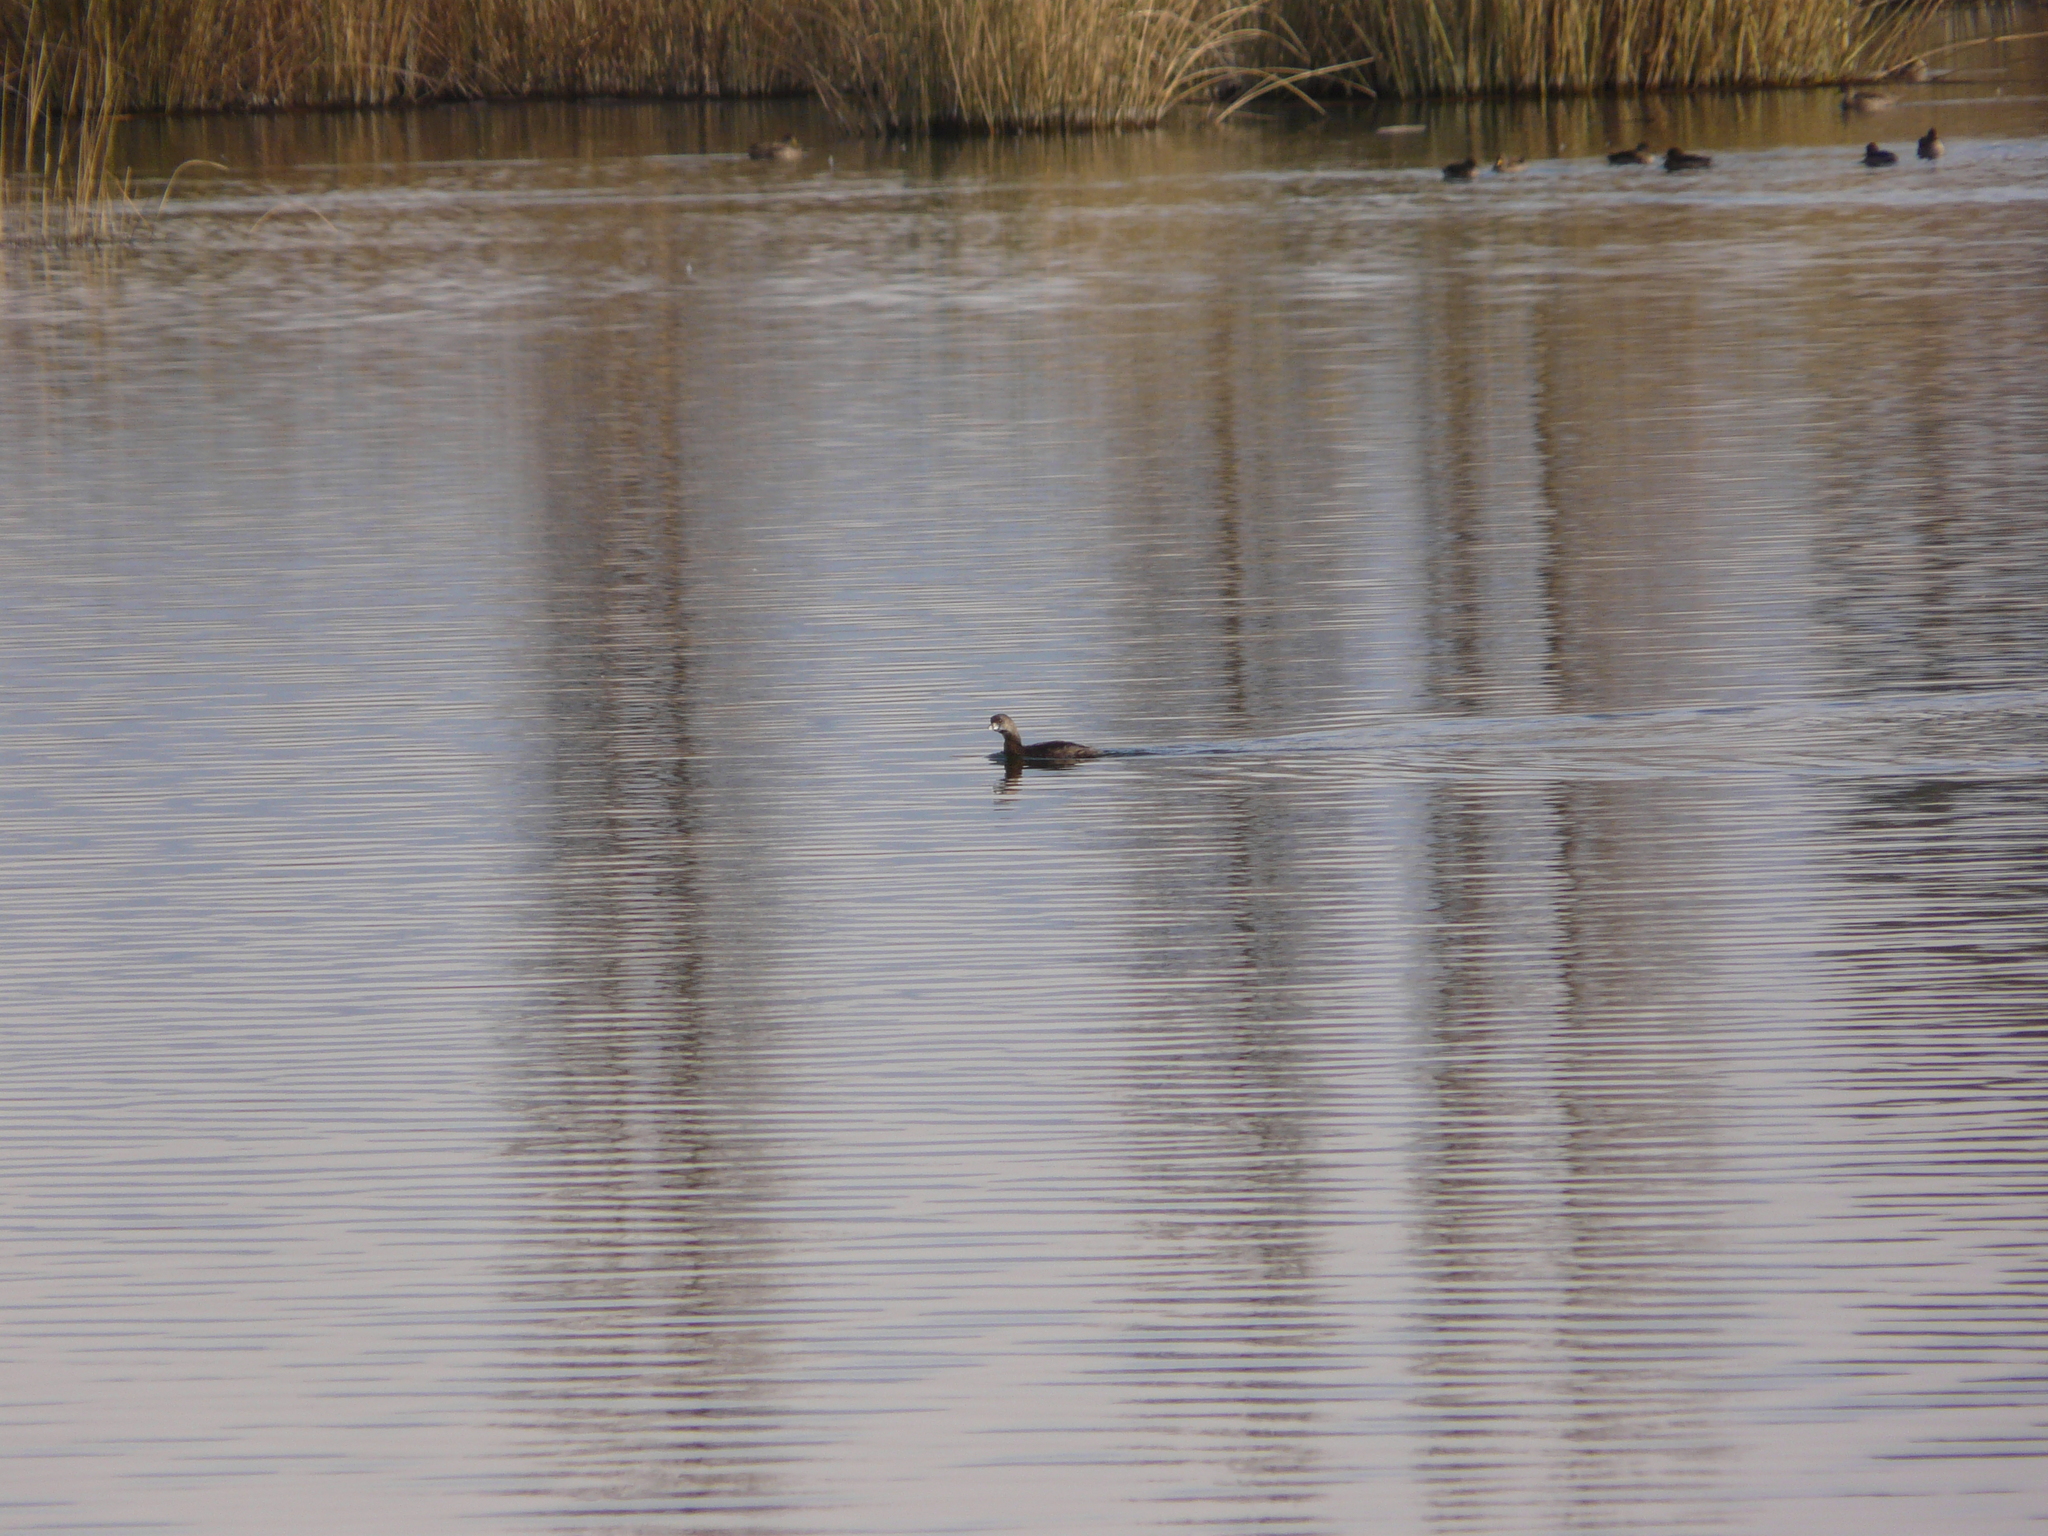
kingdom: Animalia
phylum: Chordata
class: Aves
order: Podicipediformes
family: Podicipedidae
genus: Podilymbus
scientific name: Podilymbus podiceps
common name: Pied-billed grebe
